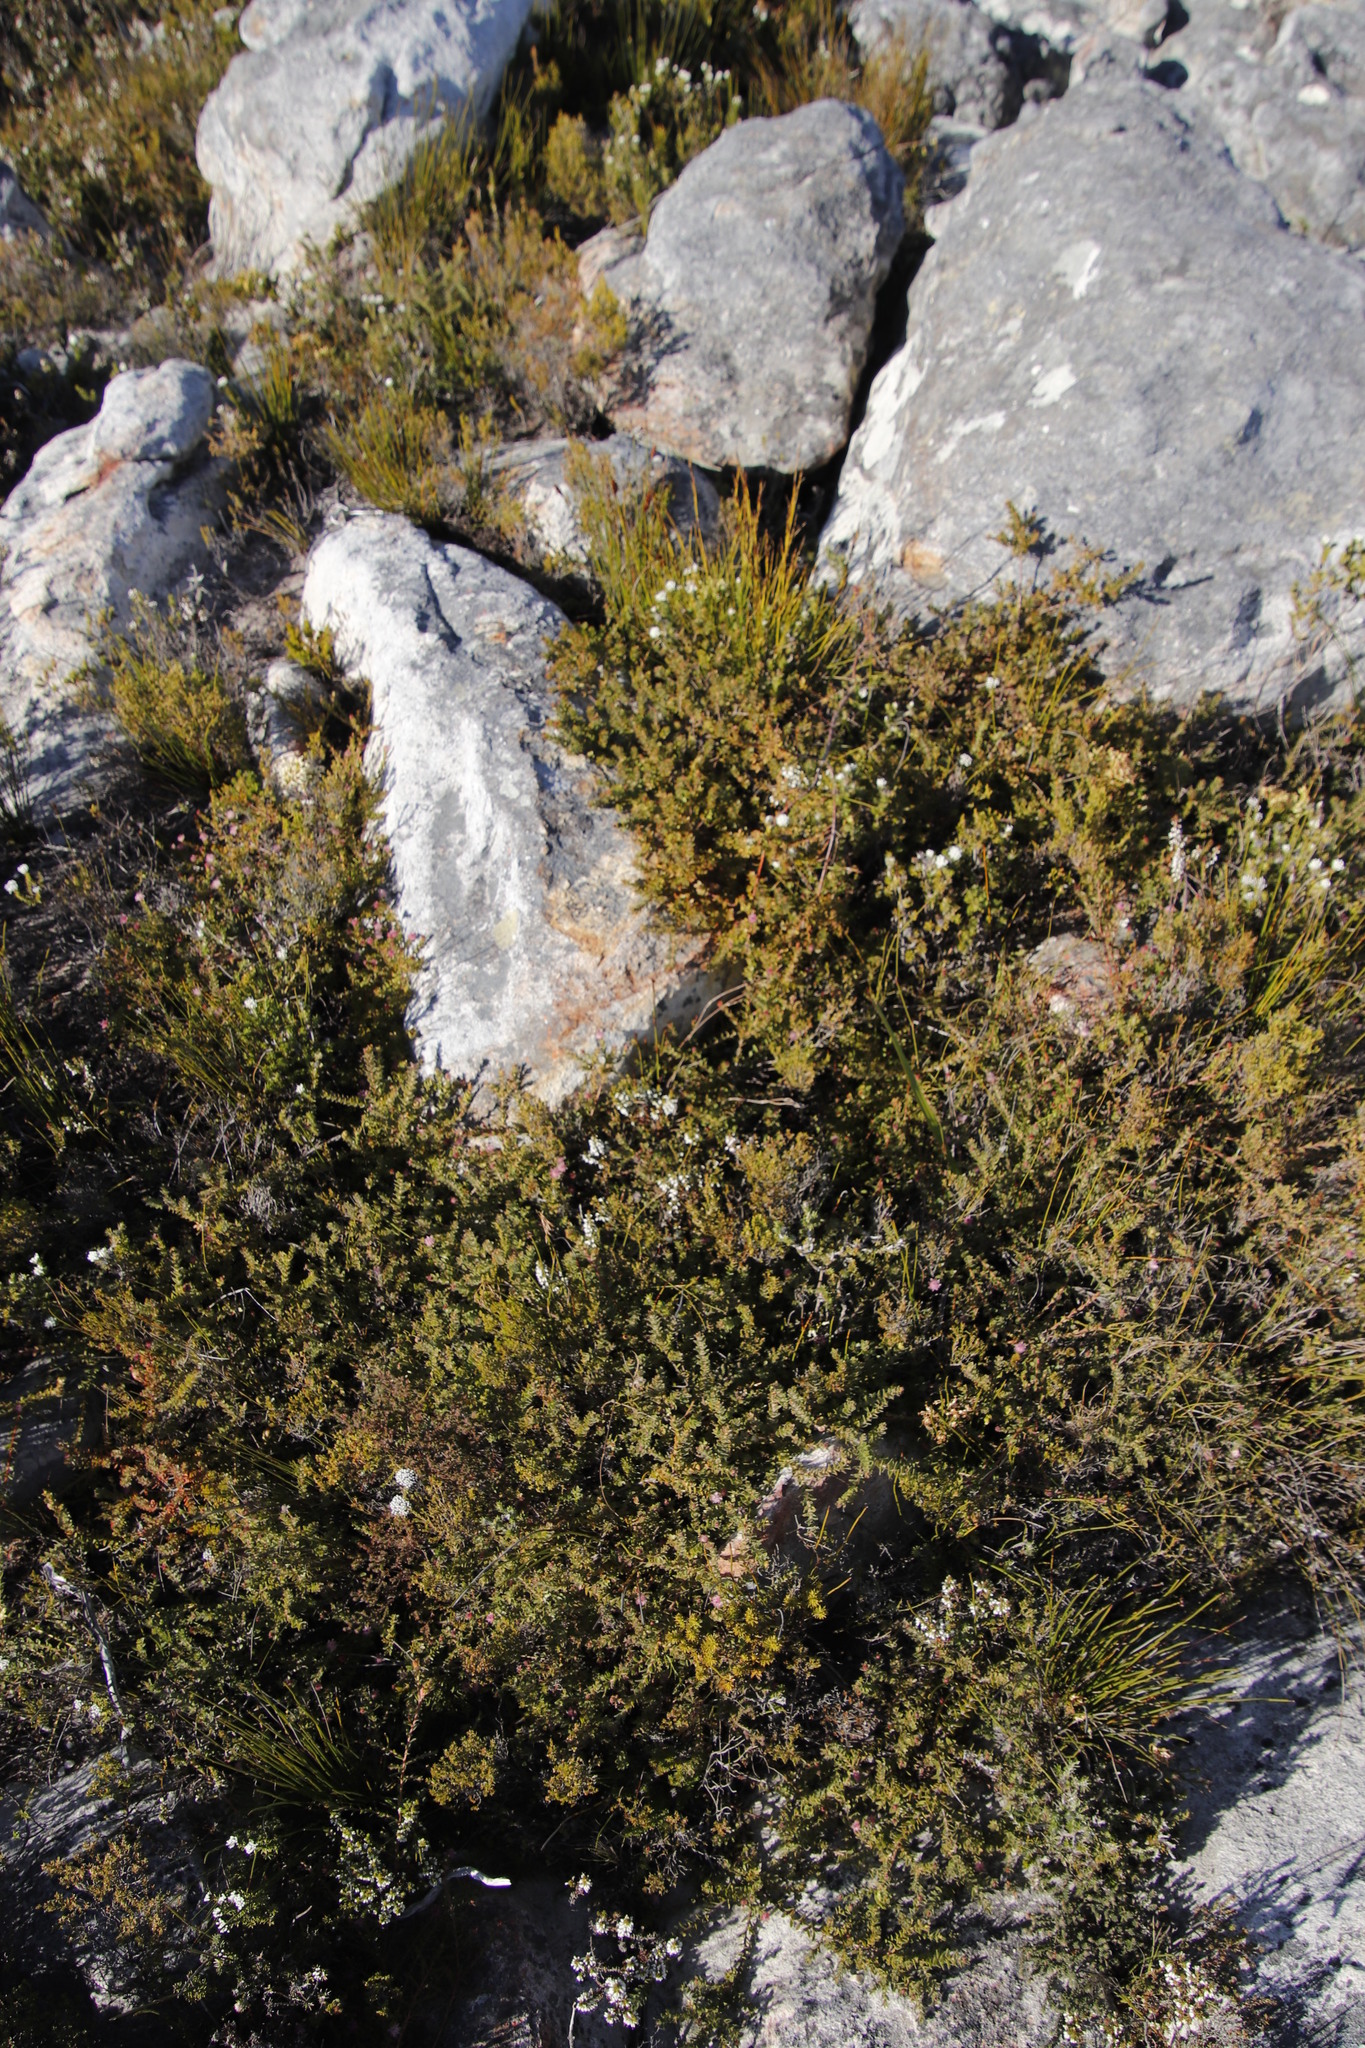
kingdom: Plantae
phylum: Tracheophyta
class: Magnoliopsida
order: Proteales
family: Proteaceae
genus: Diastella
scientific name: Diastella divaricata
